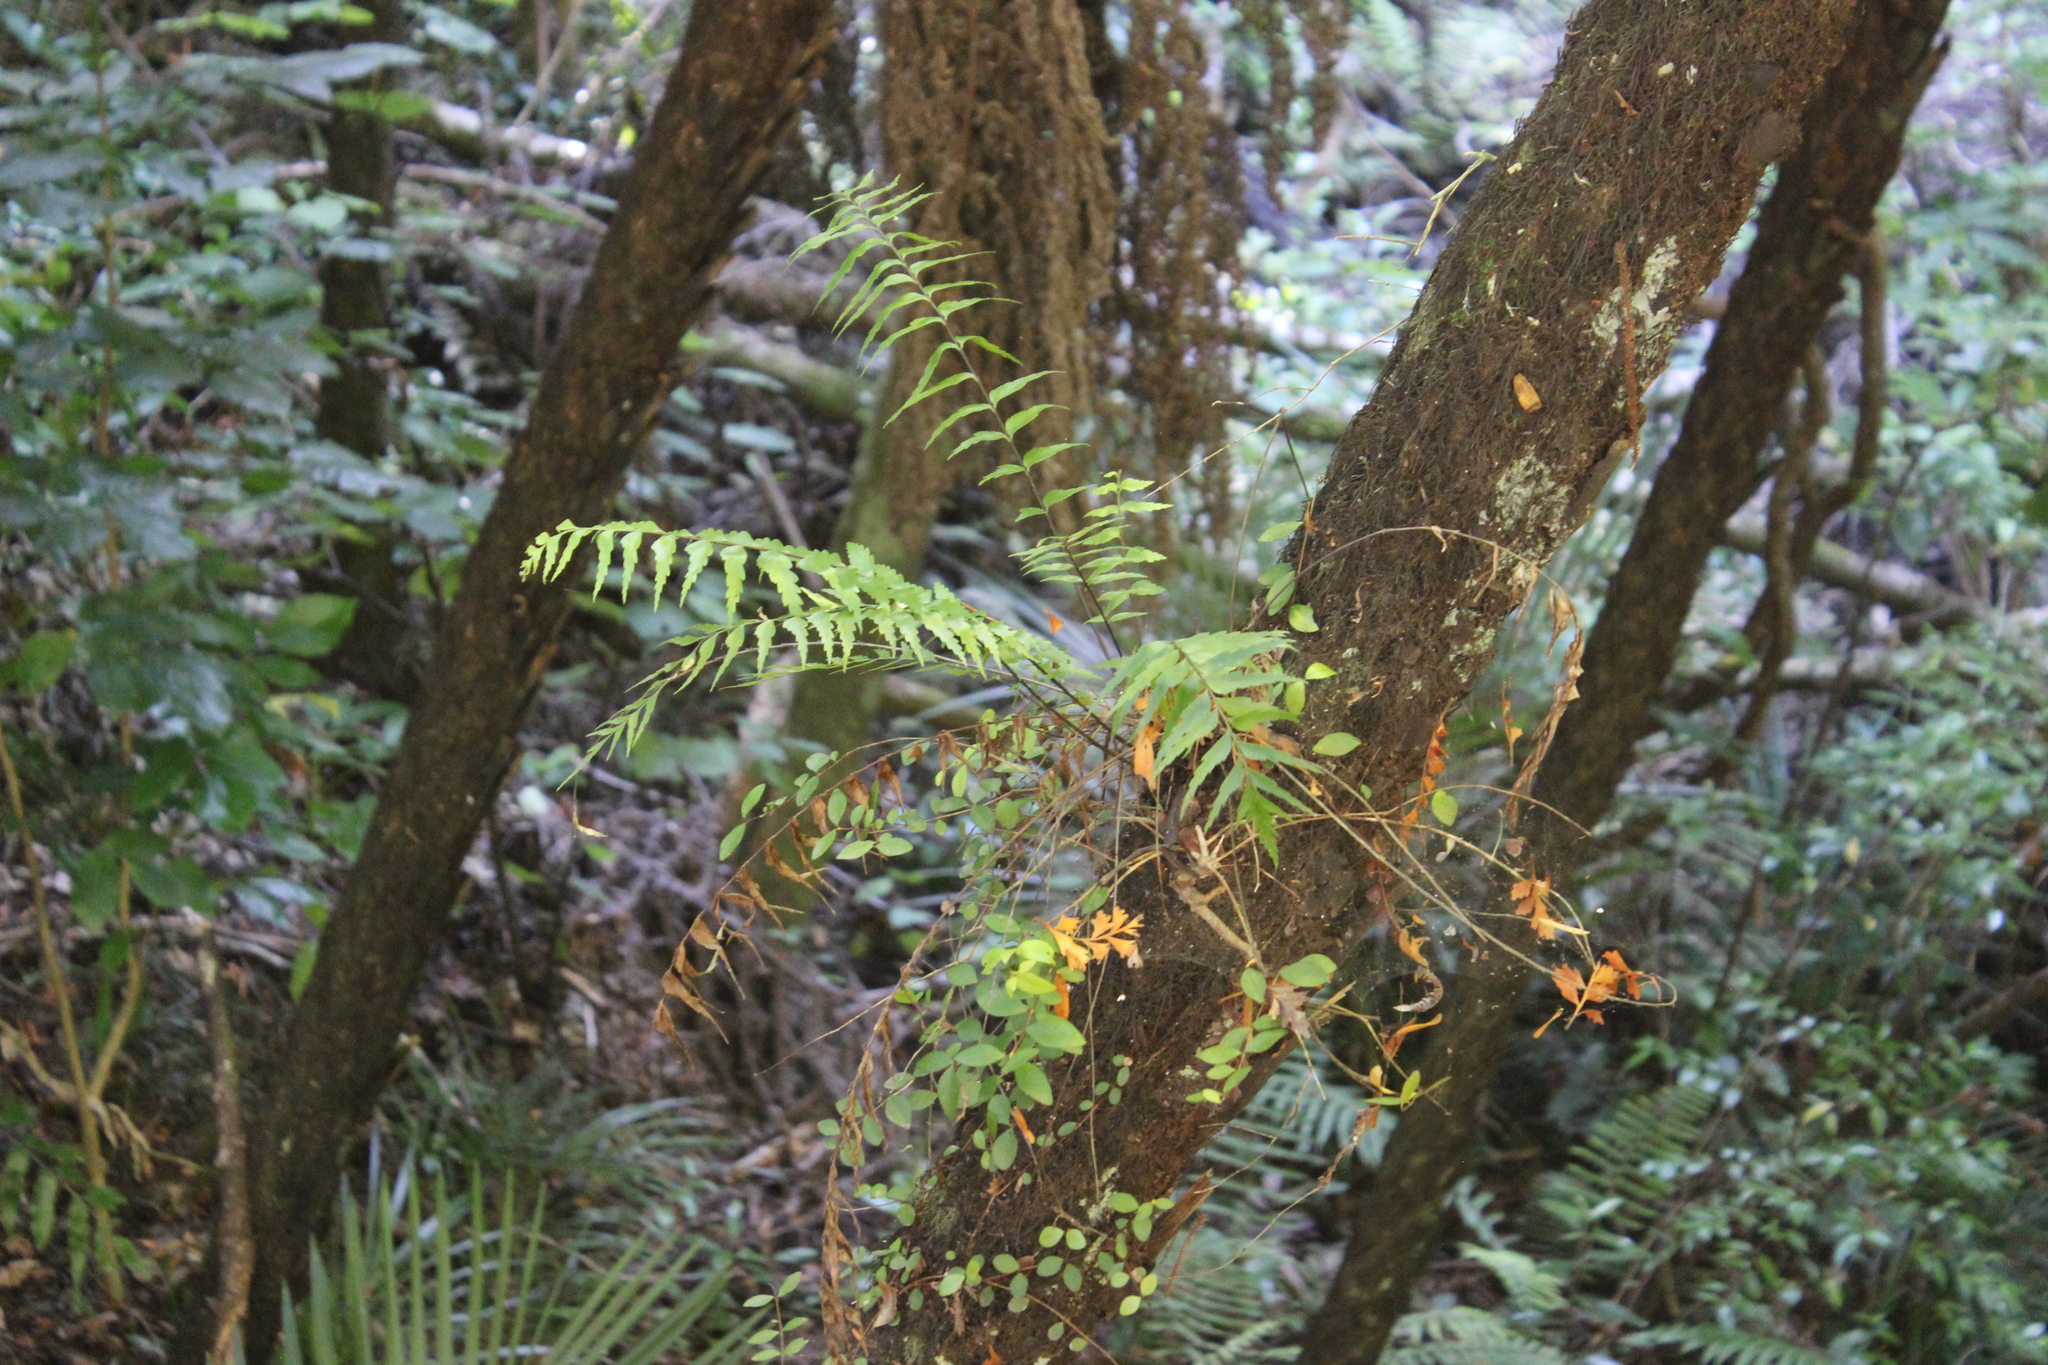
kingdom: Plantae
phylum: Tracheophyta
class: Polypodiopsida
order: Polypodiales
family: Aspleniaceae
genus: Asplenium
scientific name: Asplenium polyodon
